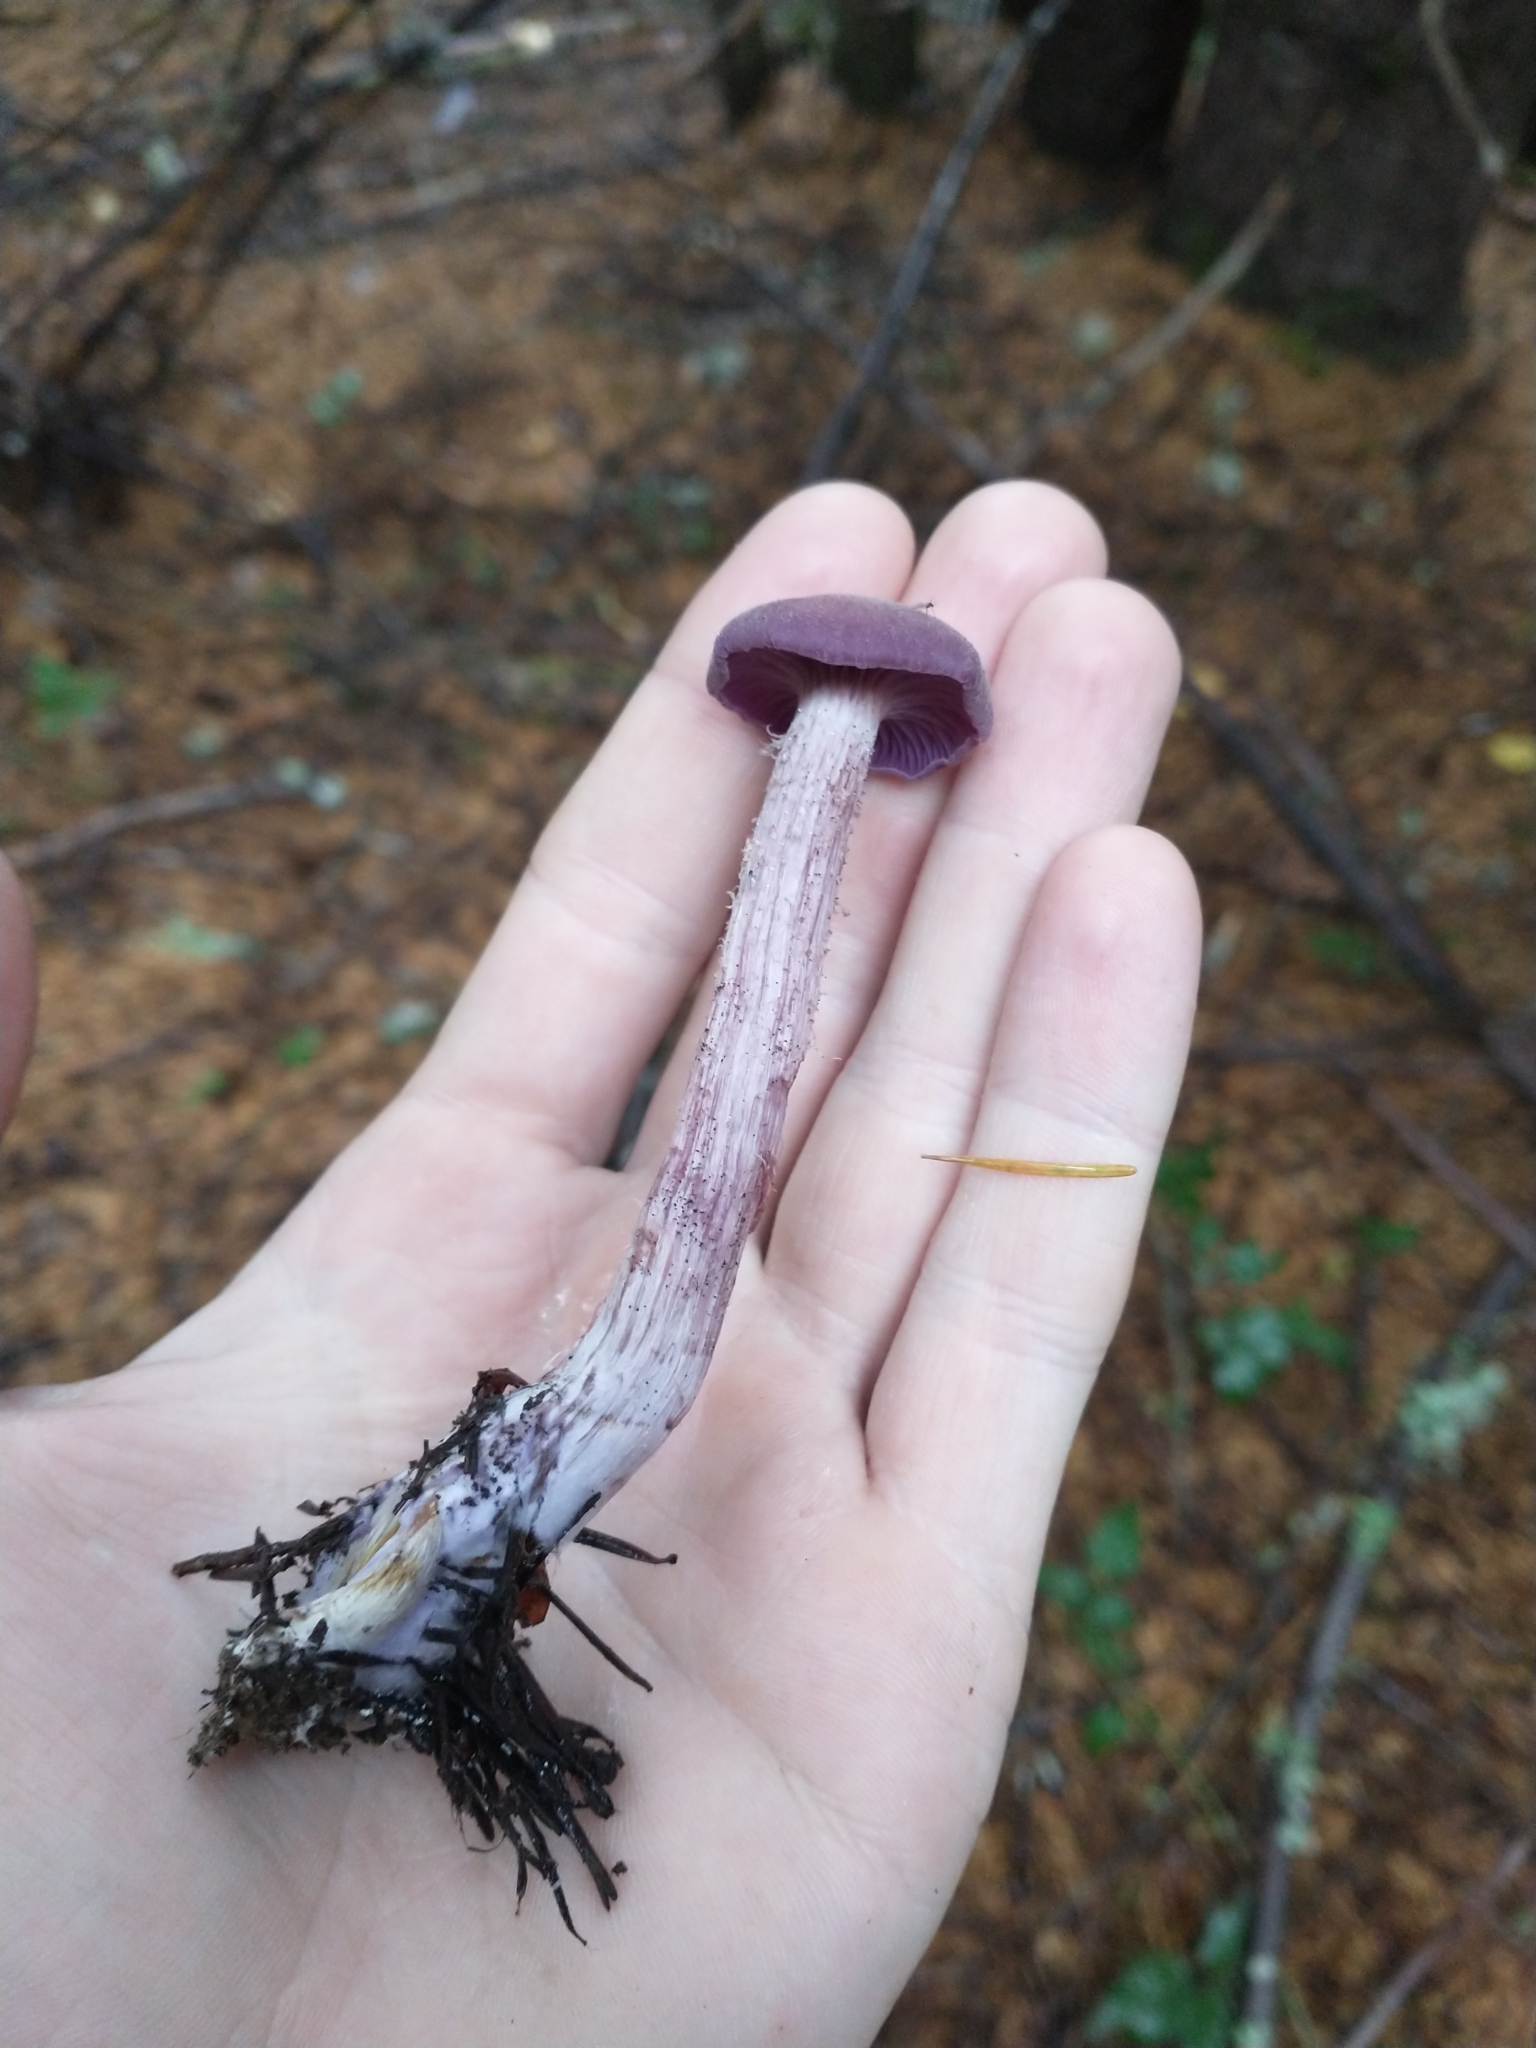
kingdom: Fungi
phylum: Basidiomycota
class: Agaricomycetes
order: Agaricales
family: Hydnangiaceae
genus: Laccaria
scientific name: Laccaria amethysteo-occidentalis
